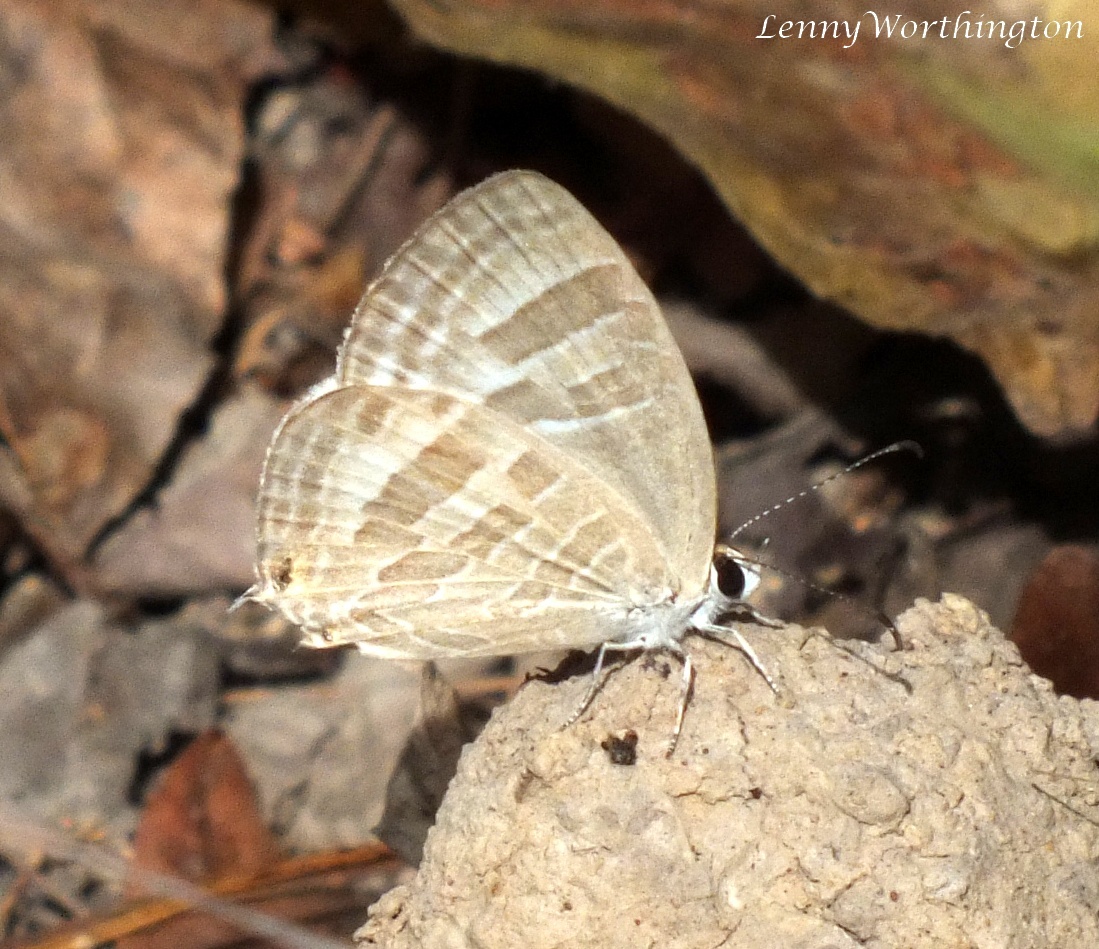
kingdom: Animalia
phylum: Arthropoda
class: Insecta
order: Lepidoptera
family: Lycaenidae
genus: Jamides
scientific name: Jamides pura
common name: White cerulean
